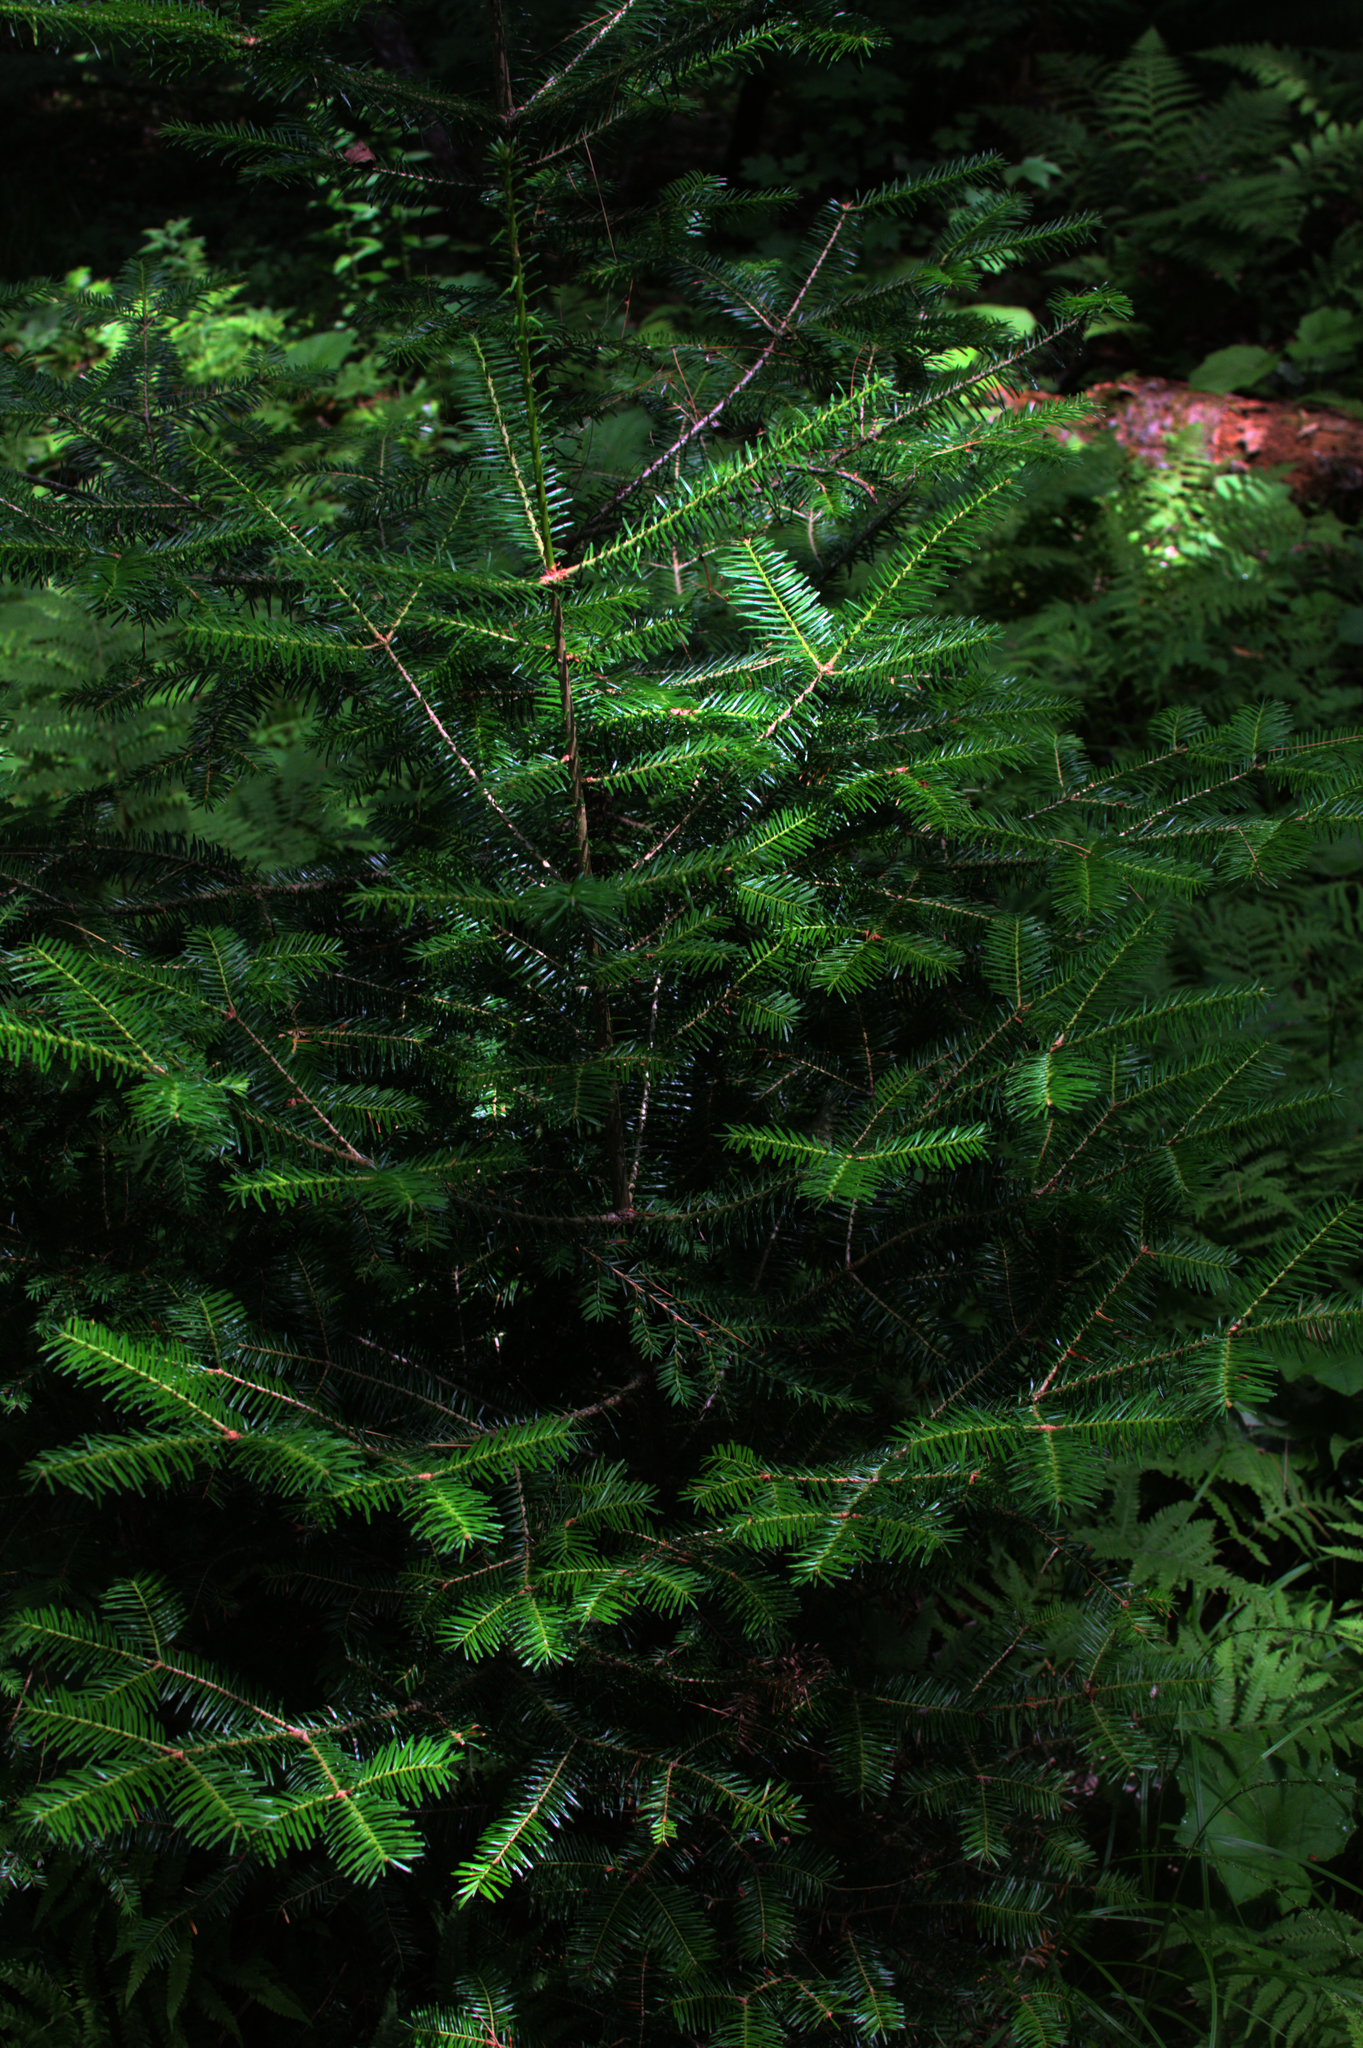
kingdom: Plantae
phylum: Tracheophyta
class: Pinopsida
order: Pinales
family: Pinaceae
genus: Abies
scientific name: Abies balsamea
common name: Balsam fir
